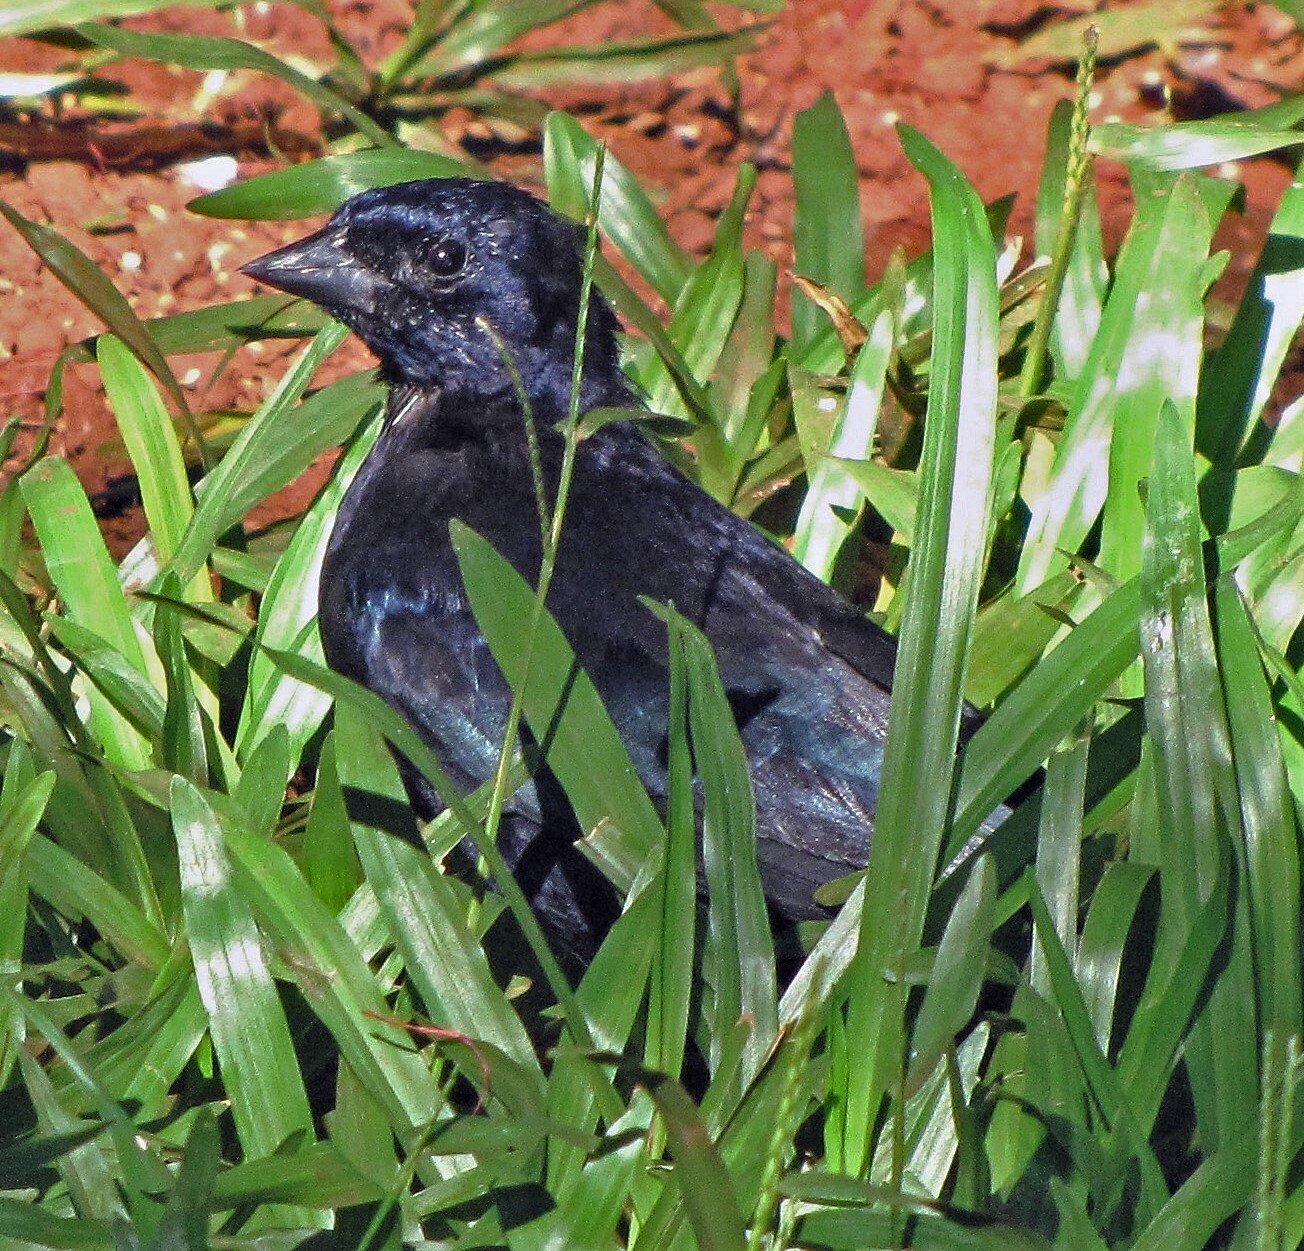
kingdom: Animalia
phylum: Chordata
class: Aves
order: Passeriformes
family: Icteridae
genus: Molothrus
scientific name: Molothrus bonariensis
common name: Shiny cowbird
